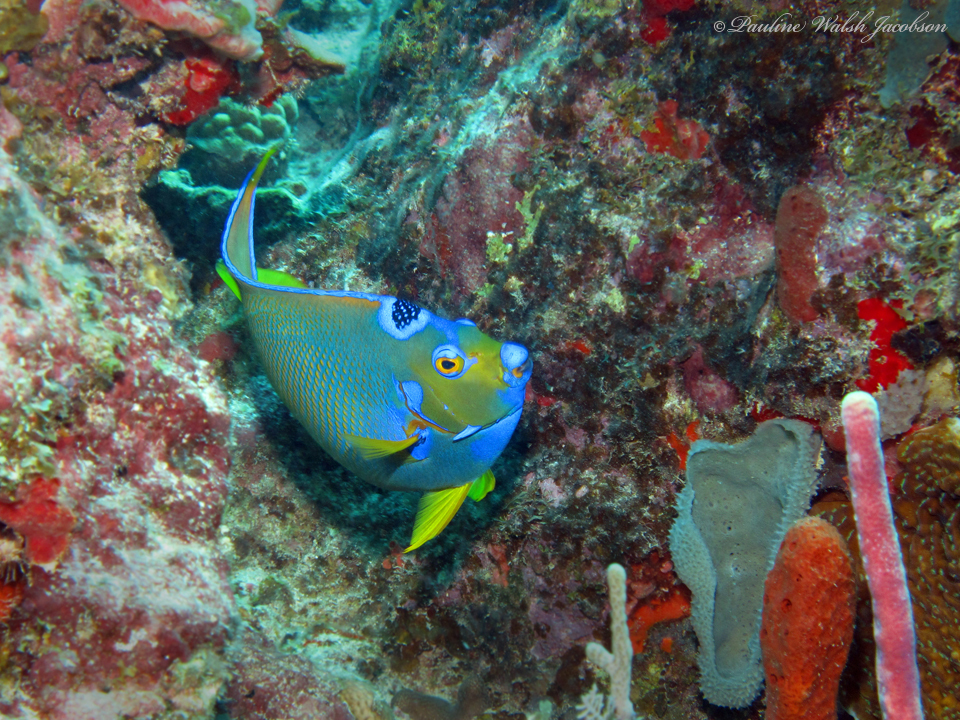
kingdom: Animalia
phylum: Chordata
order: Perciformes
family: Pomacanthidae
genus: Holacanthus
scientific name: Holacanthus ciliaris
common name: Queen angelfish
